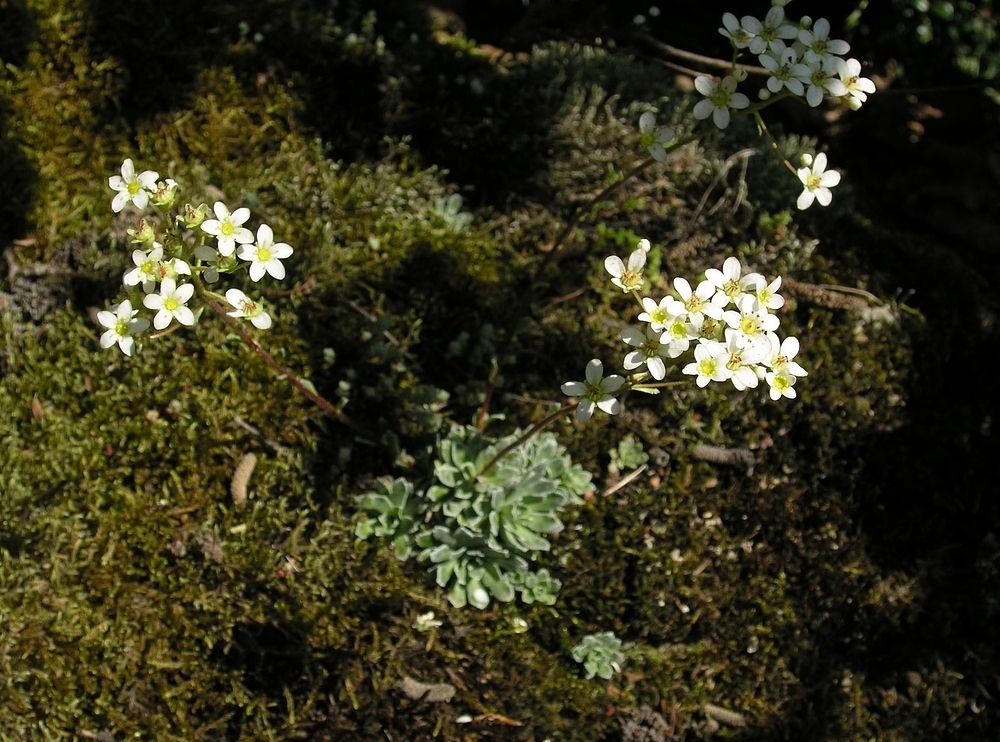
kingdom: Plantae
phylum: Tracheophyta
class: Magnoliopsida
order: Saxifragales
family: Saxifragaceae
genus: Saxifraga
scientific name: Saxifraga paniculata
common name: Livelong saxifrage
